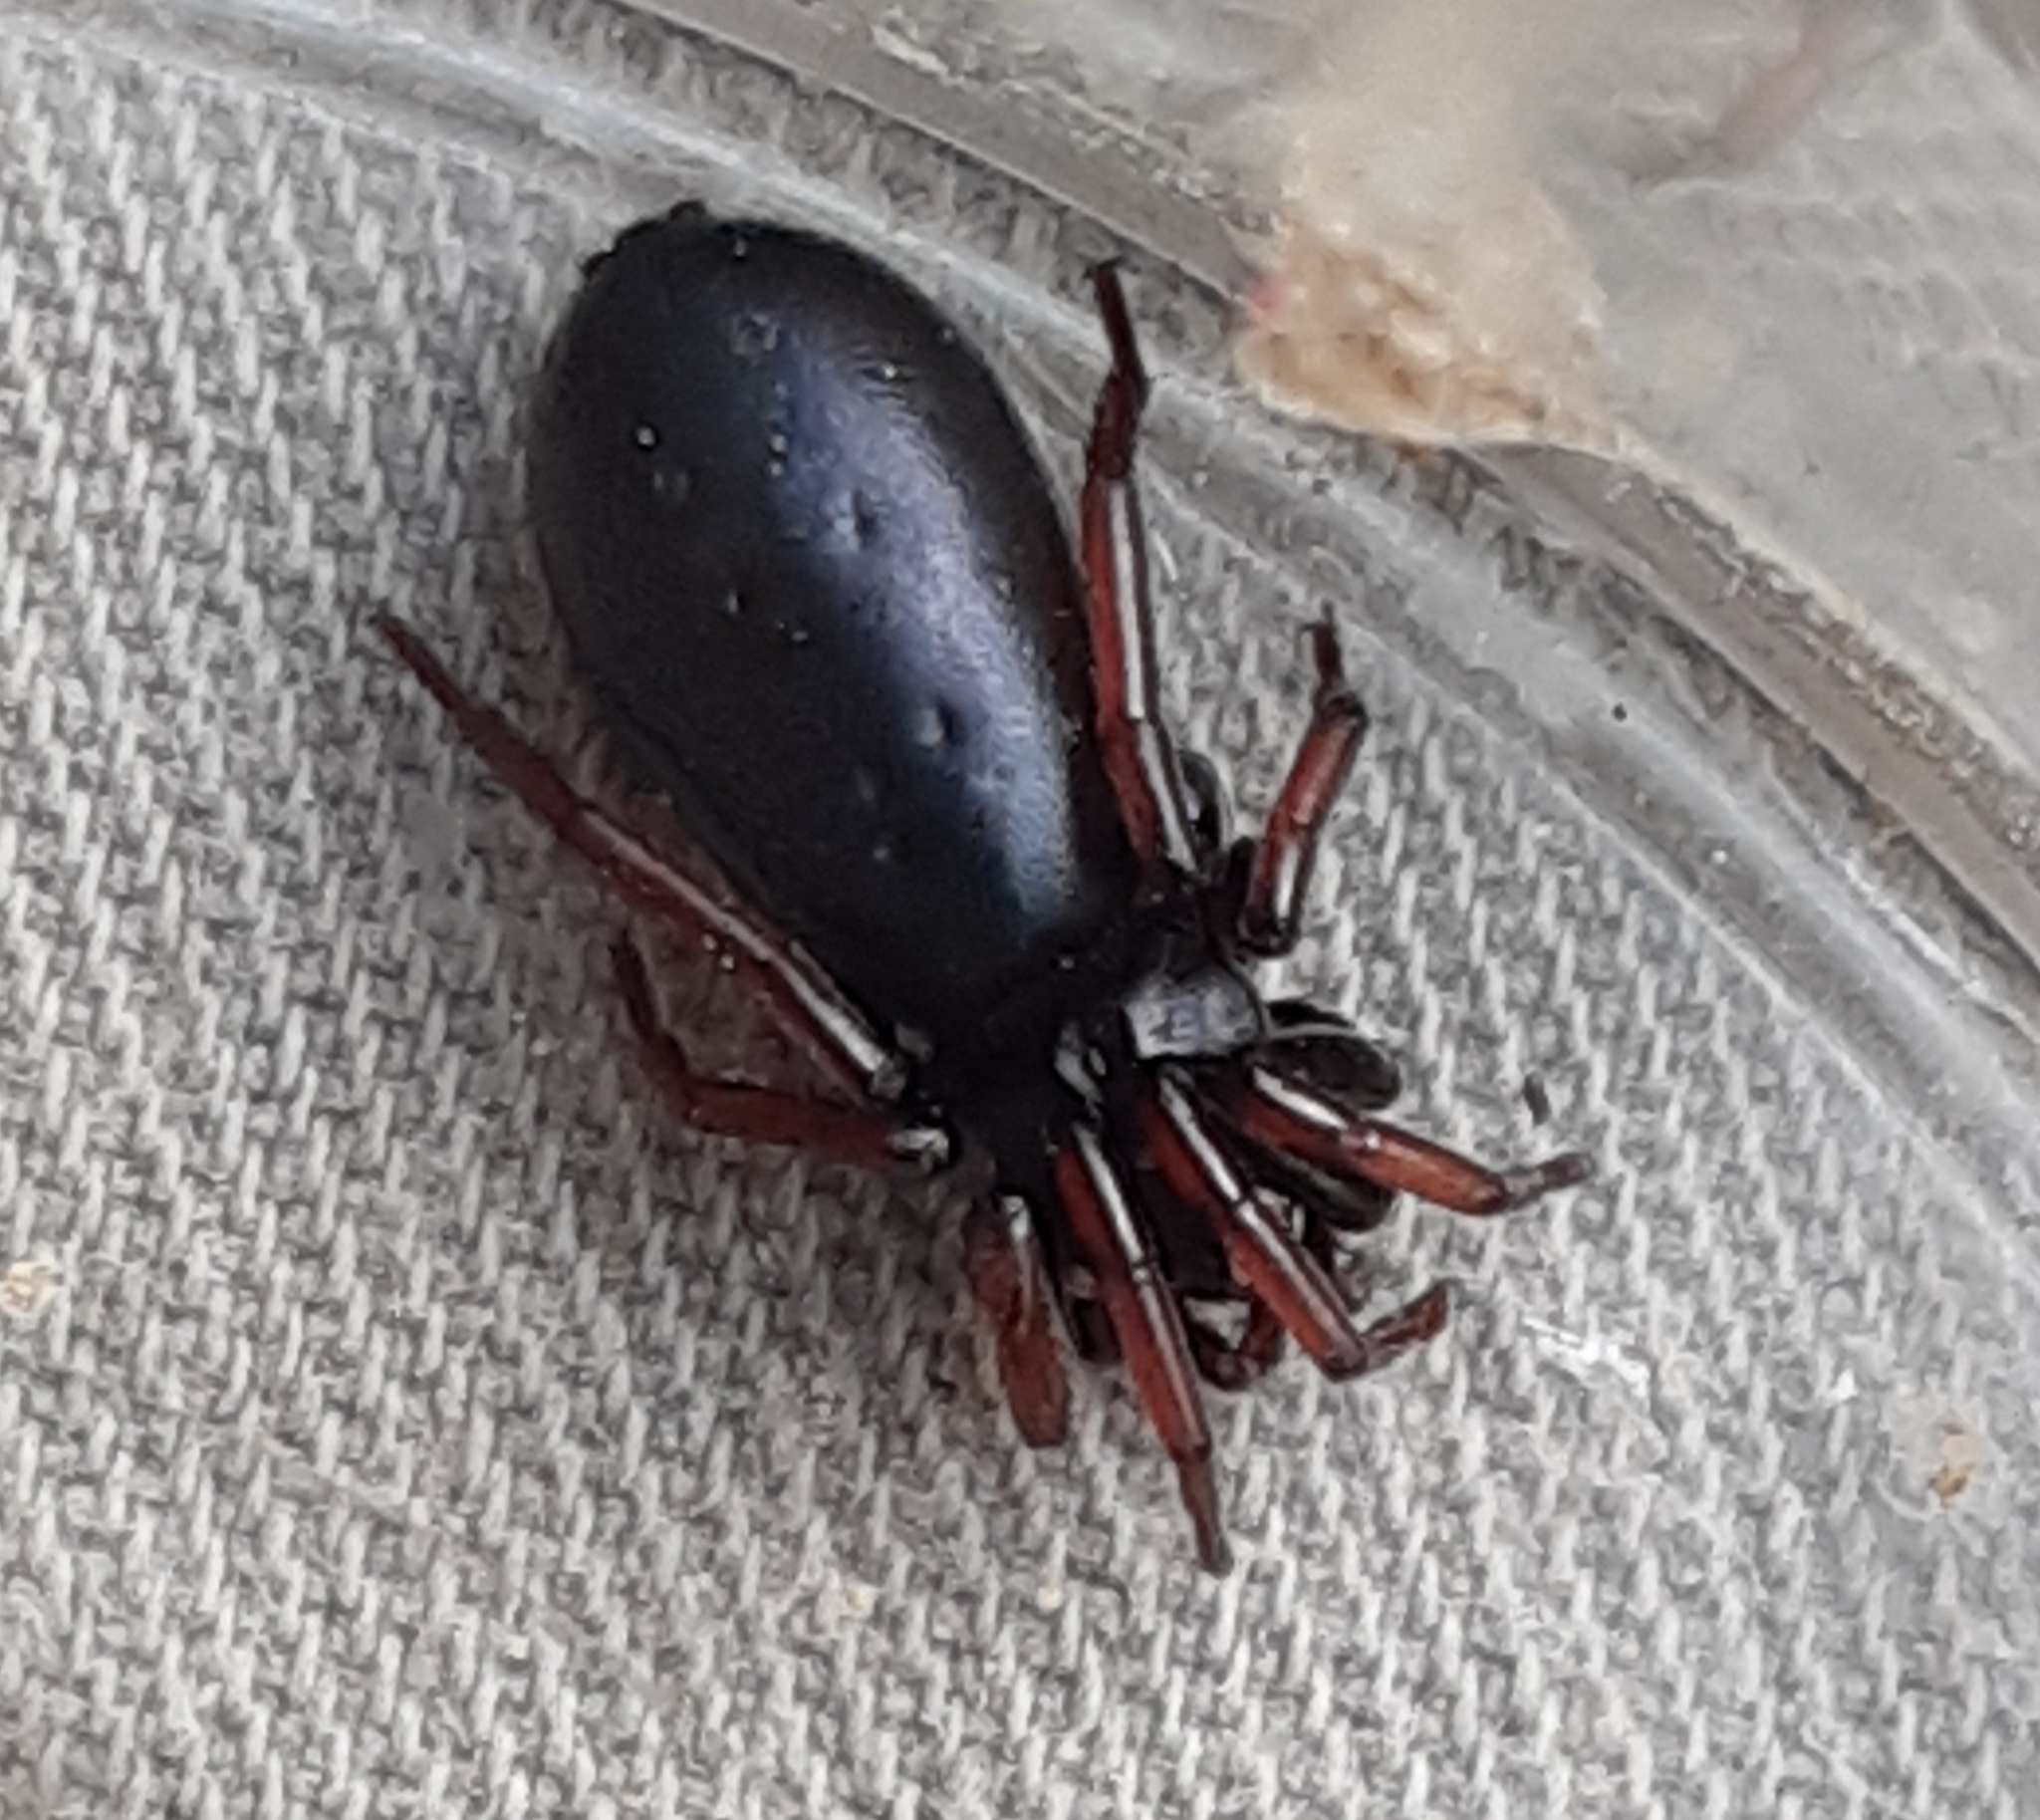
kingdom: Animalia
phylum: Arthropoda
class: Arachnida
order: Araneae
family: Gnaphosidae
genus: Trachyzelotes
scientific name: Trachyzelotes pedestris
